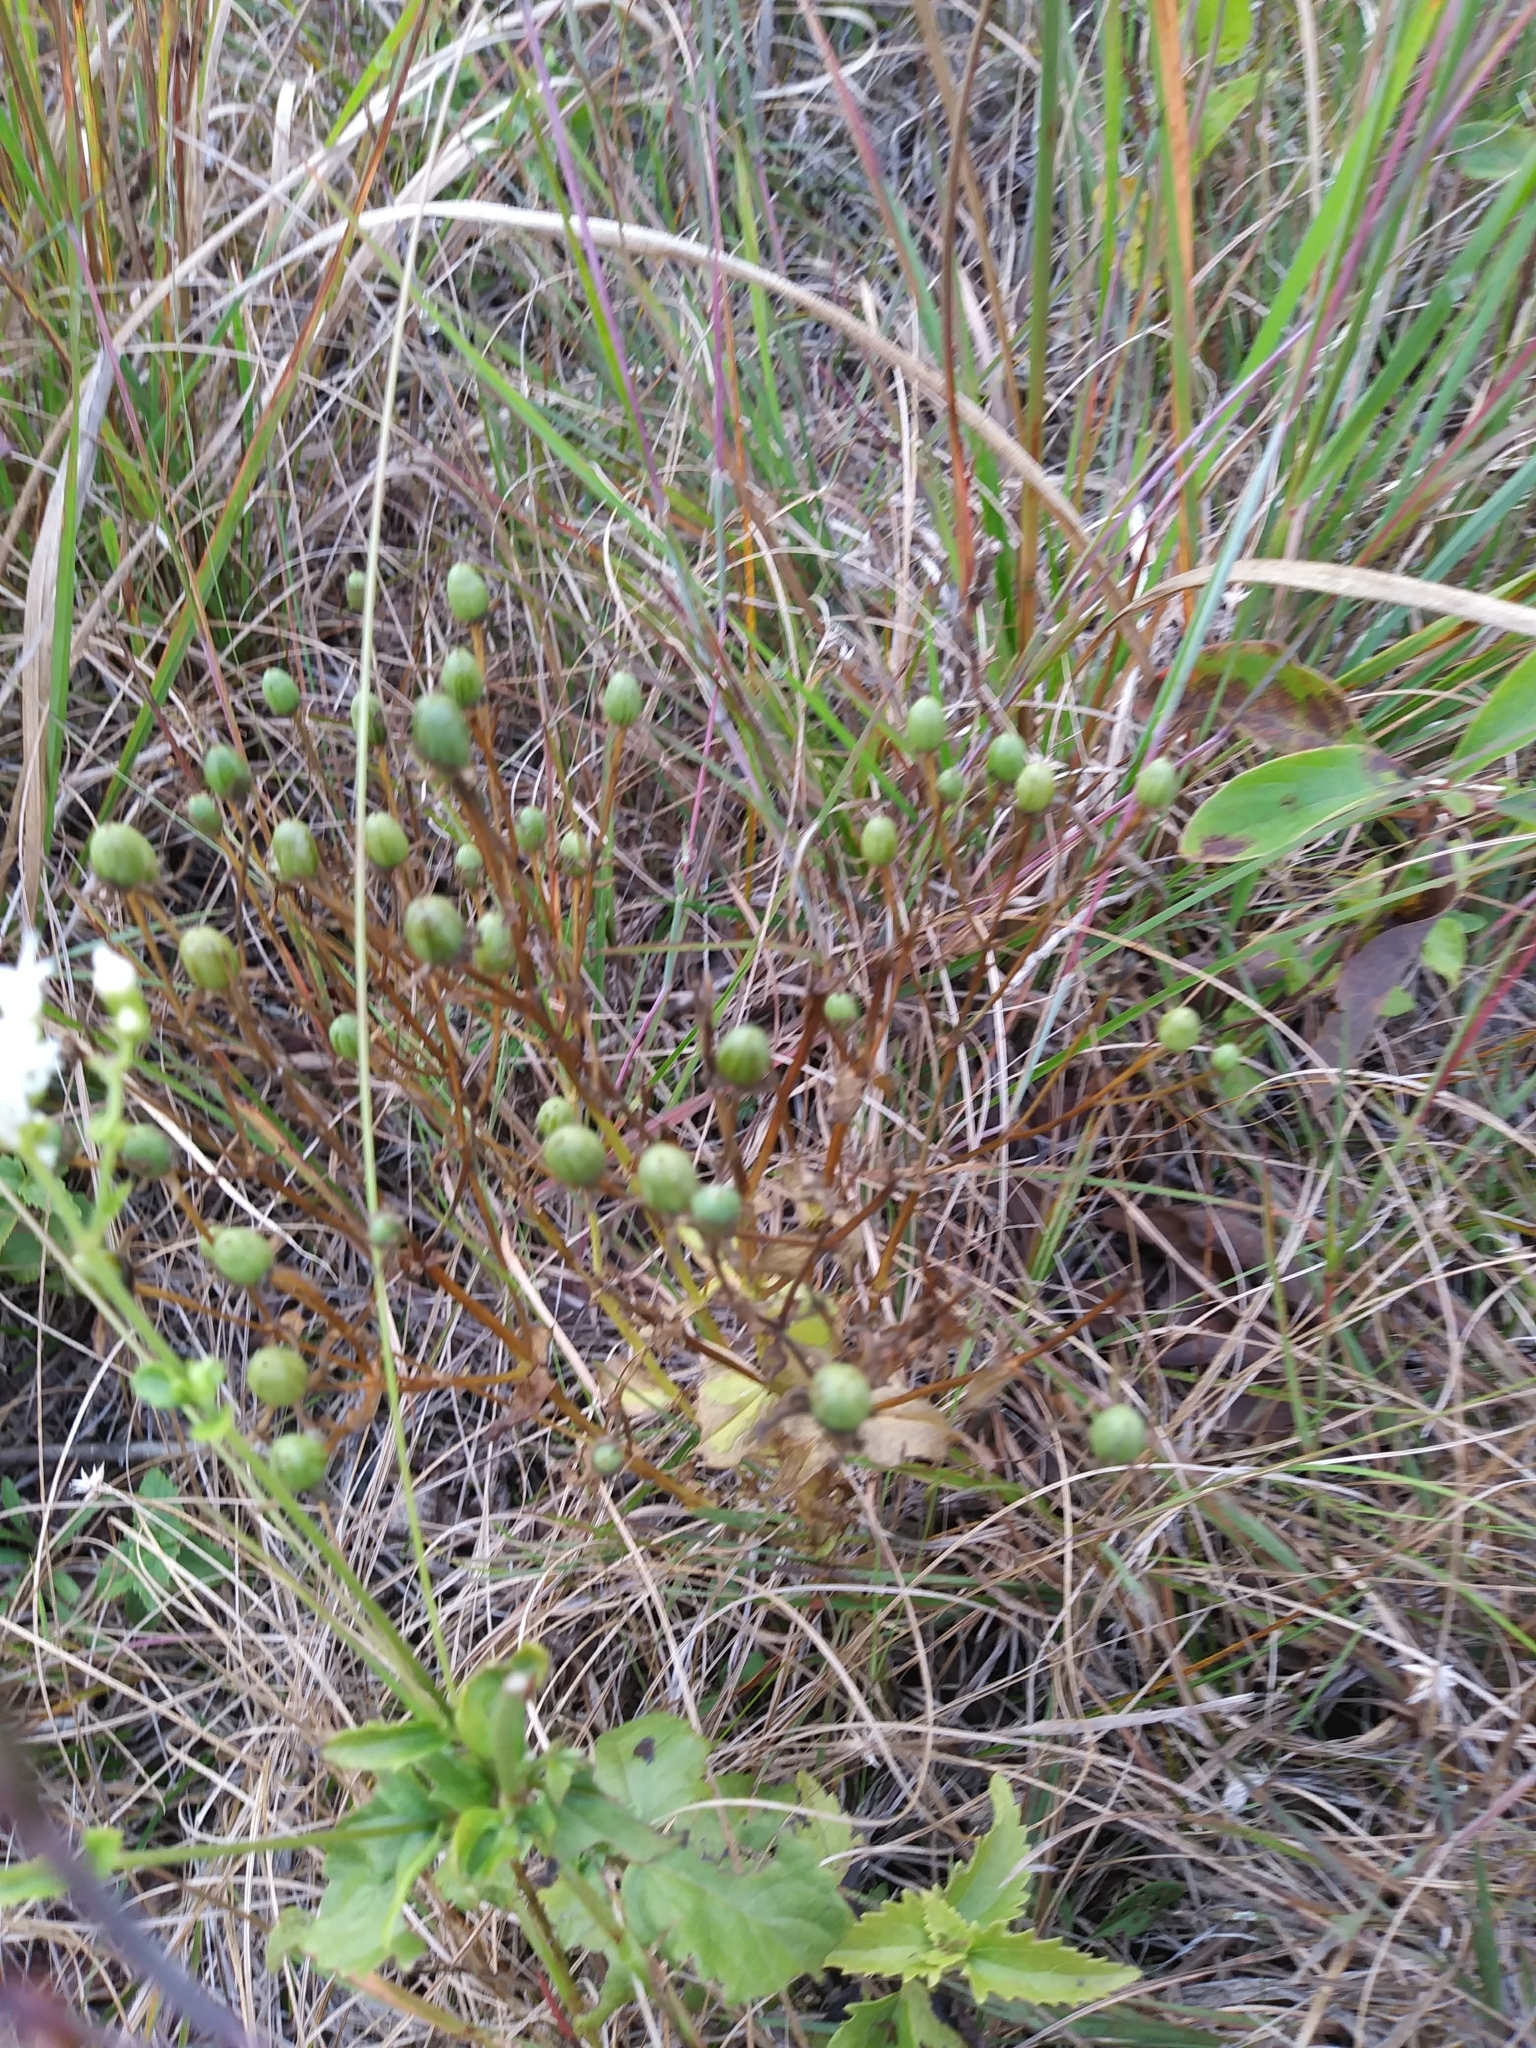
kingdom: Plantae
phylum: Tracheophyta
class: Magnoliopsida
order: Gentianales
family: Gentianaceae
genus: Sabatia
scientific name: Sabatia angularis
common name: Rose-pink
